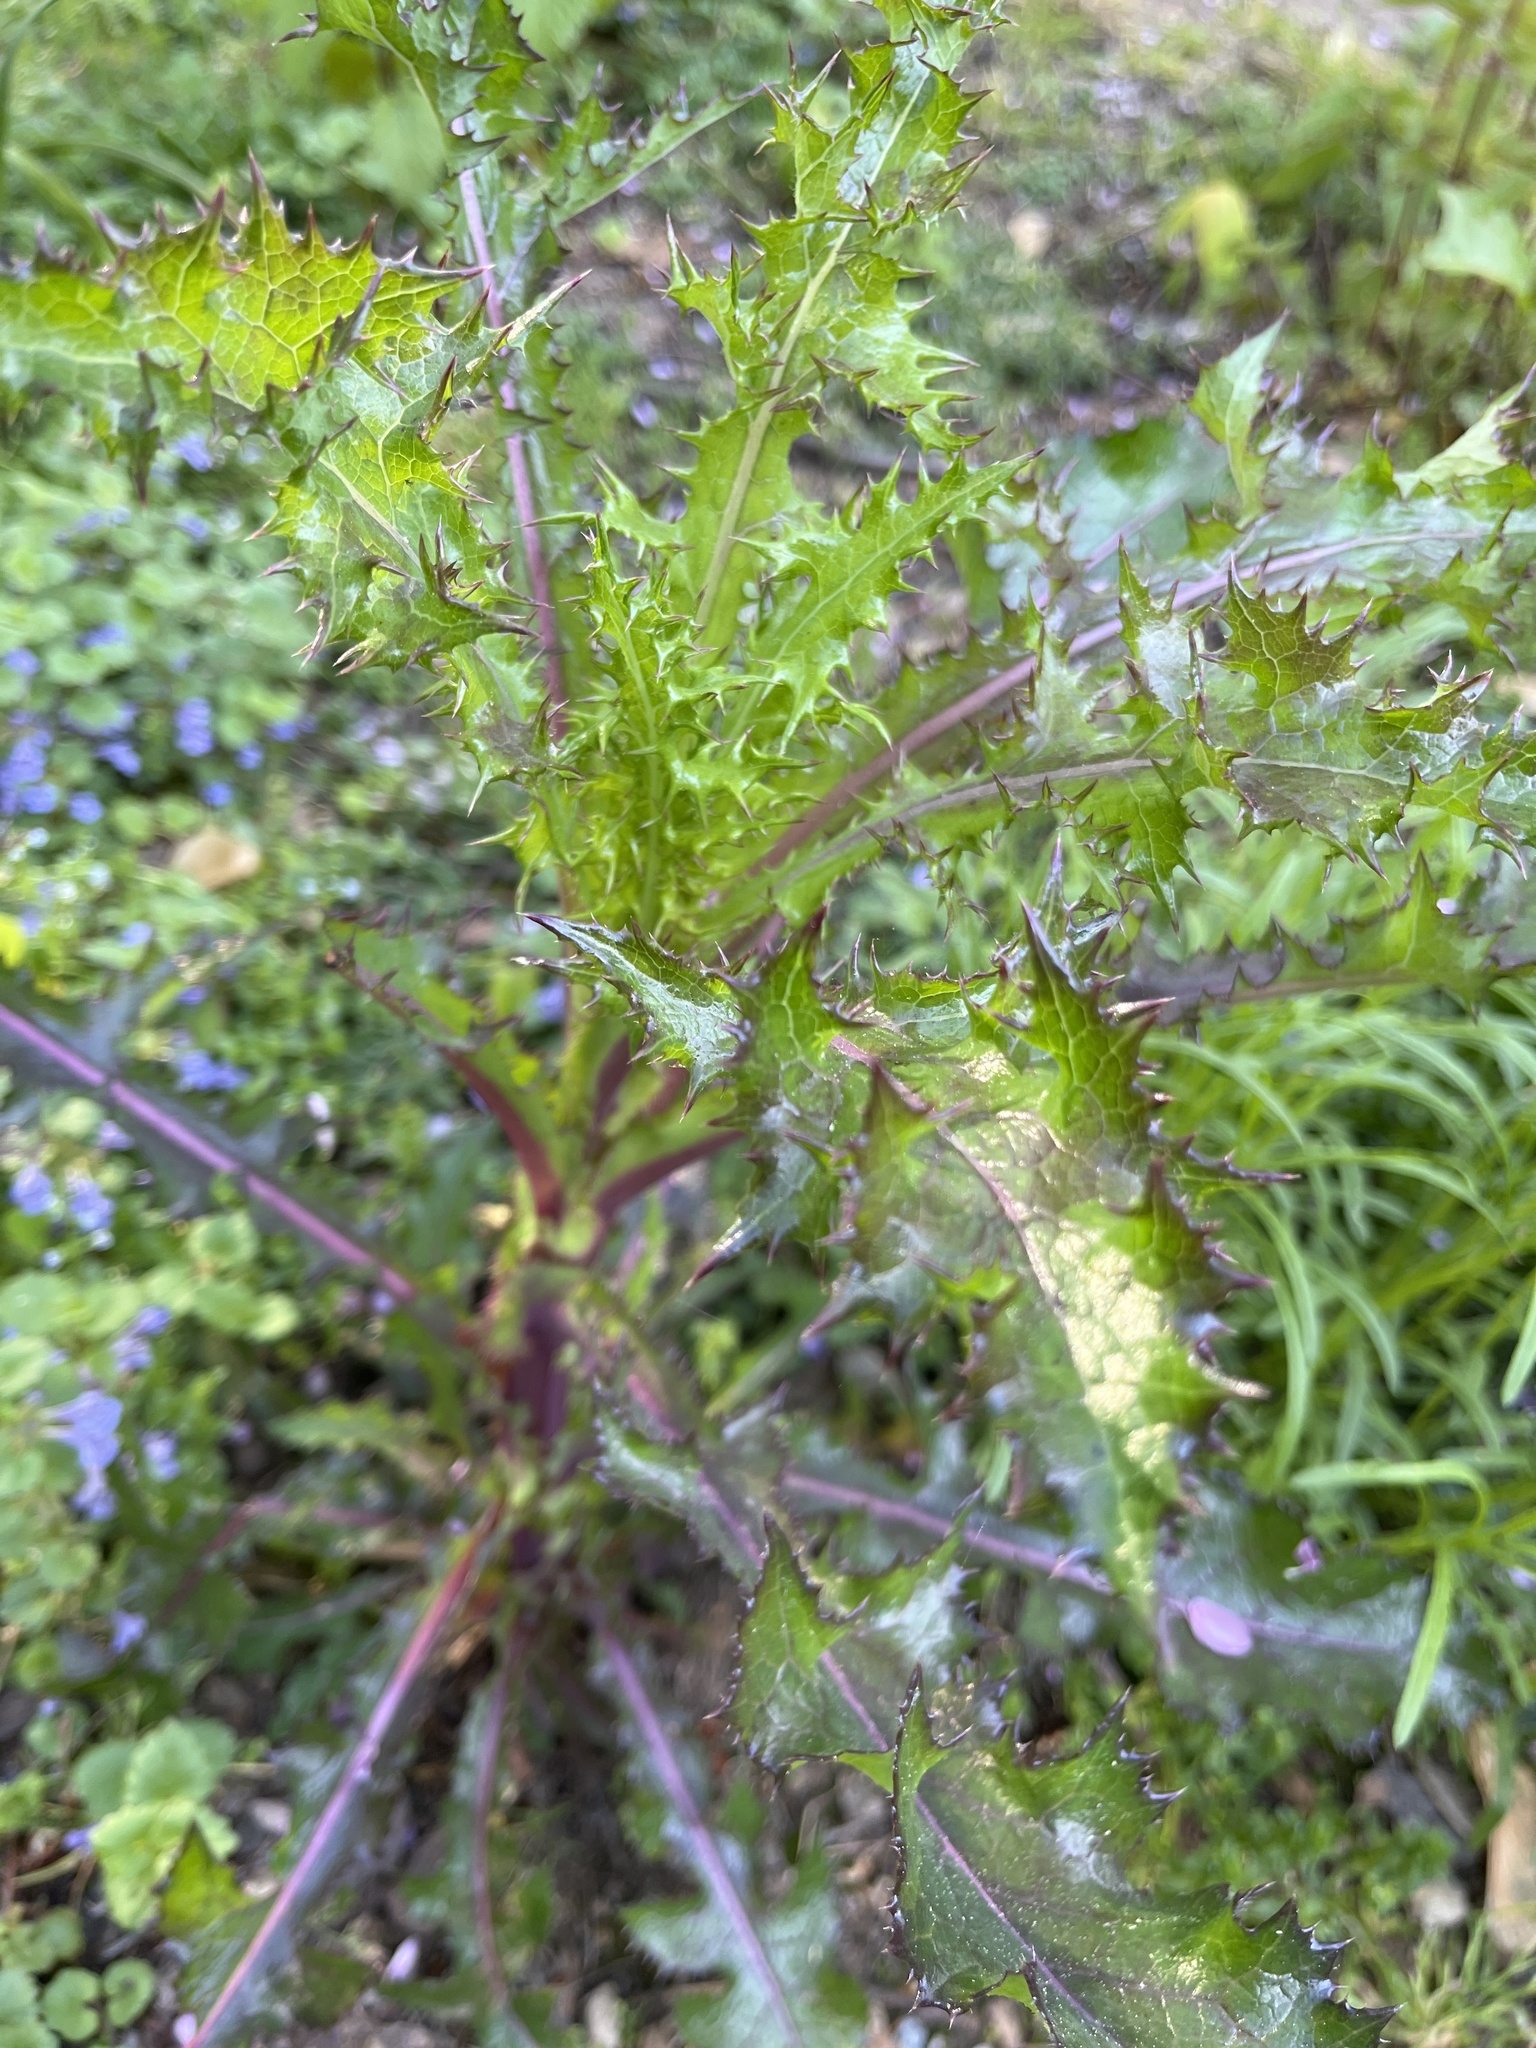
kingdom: Plantae
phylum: Tracheophyta
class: Magnoliopsida
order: Asterales
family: Asteraceae
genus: Sonchus
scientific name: Sonchus asper
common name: Prickly sow-thistle
